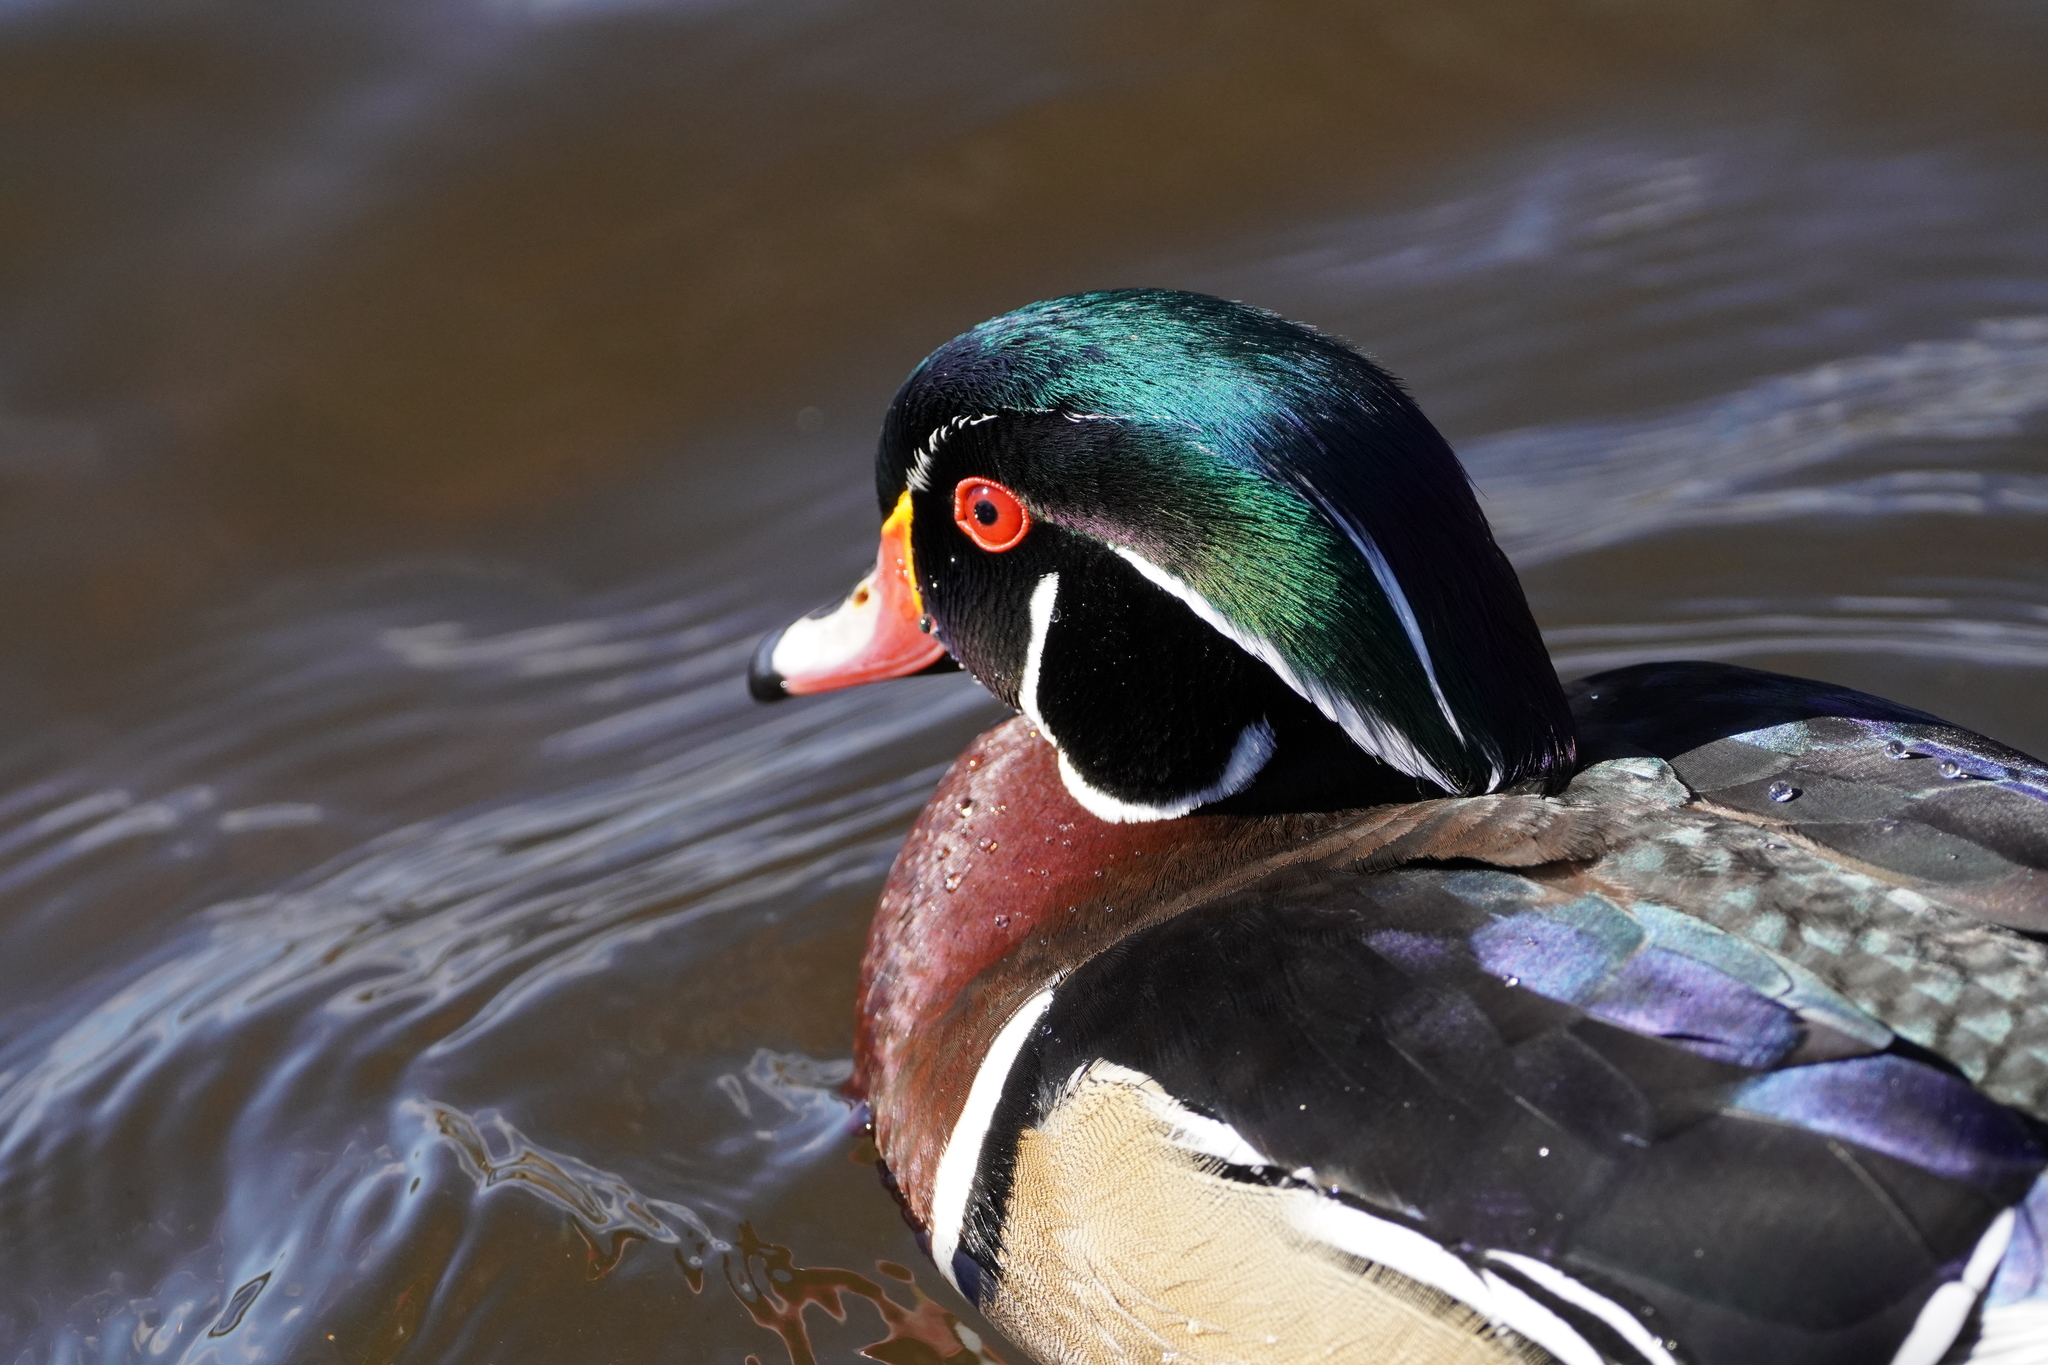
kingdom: Animalia
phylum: Chordata
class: Aves
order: Anseriformes
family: Anatidae
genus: Aix
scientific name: Aix sponsa
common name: Wood duck
